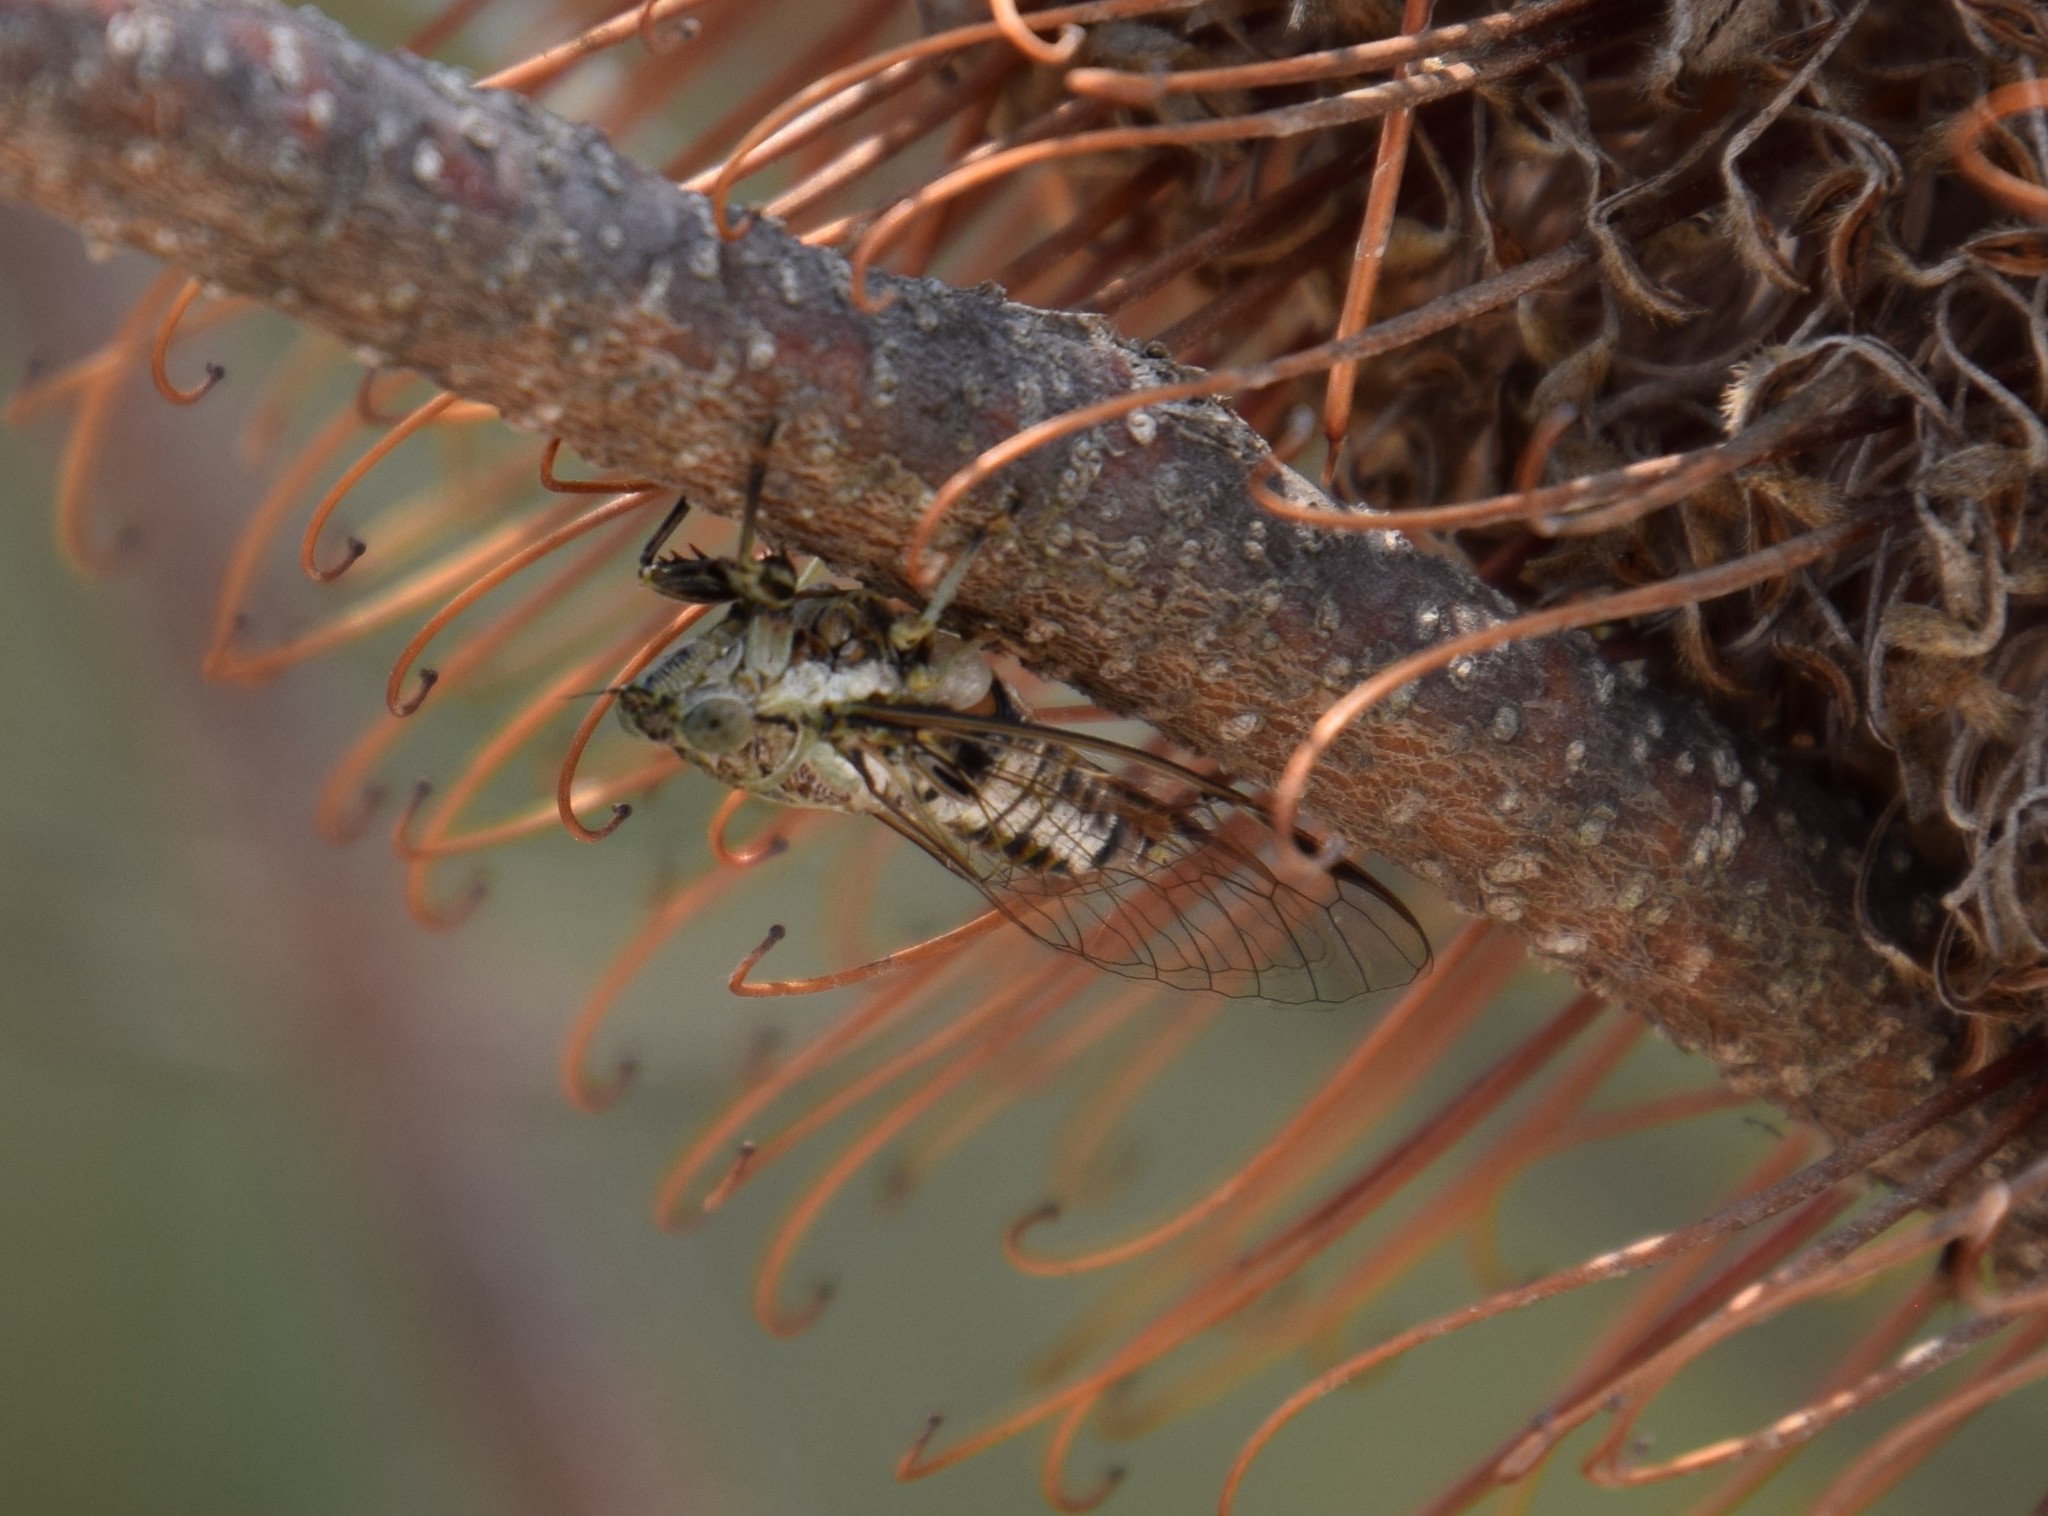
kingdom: Animalia
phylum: Arthropoda
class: Insecta
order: Hemiptera
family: Cicadidae
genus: Telmapsalta
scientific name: Telmapsalta hackeri
